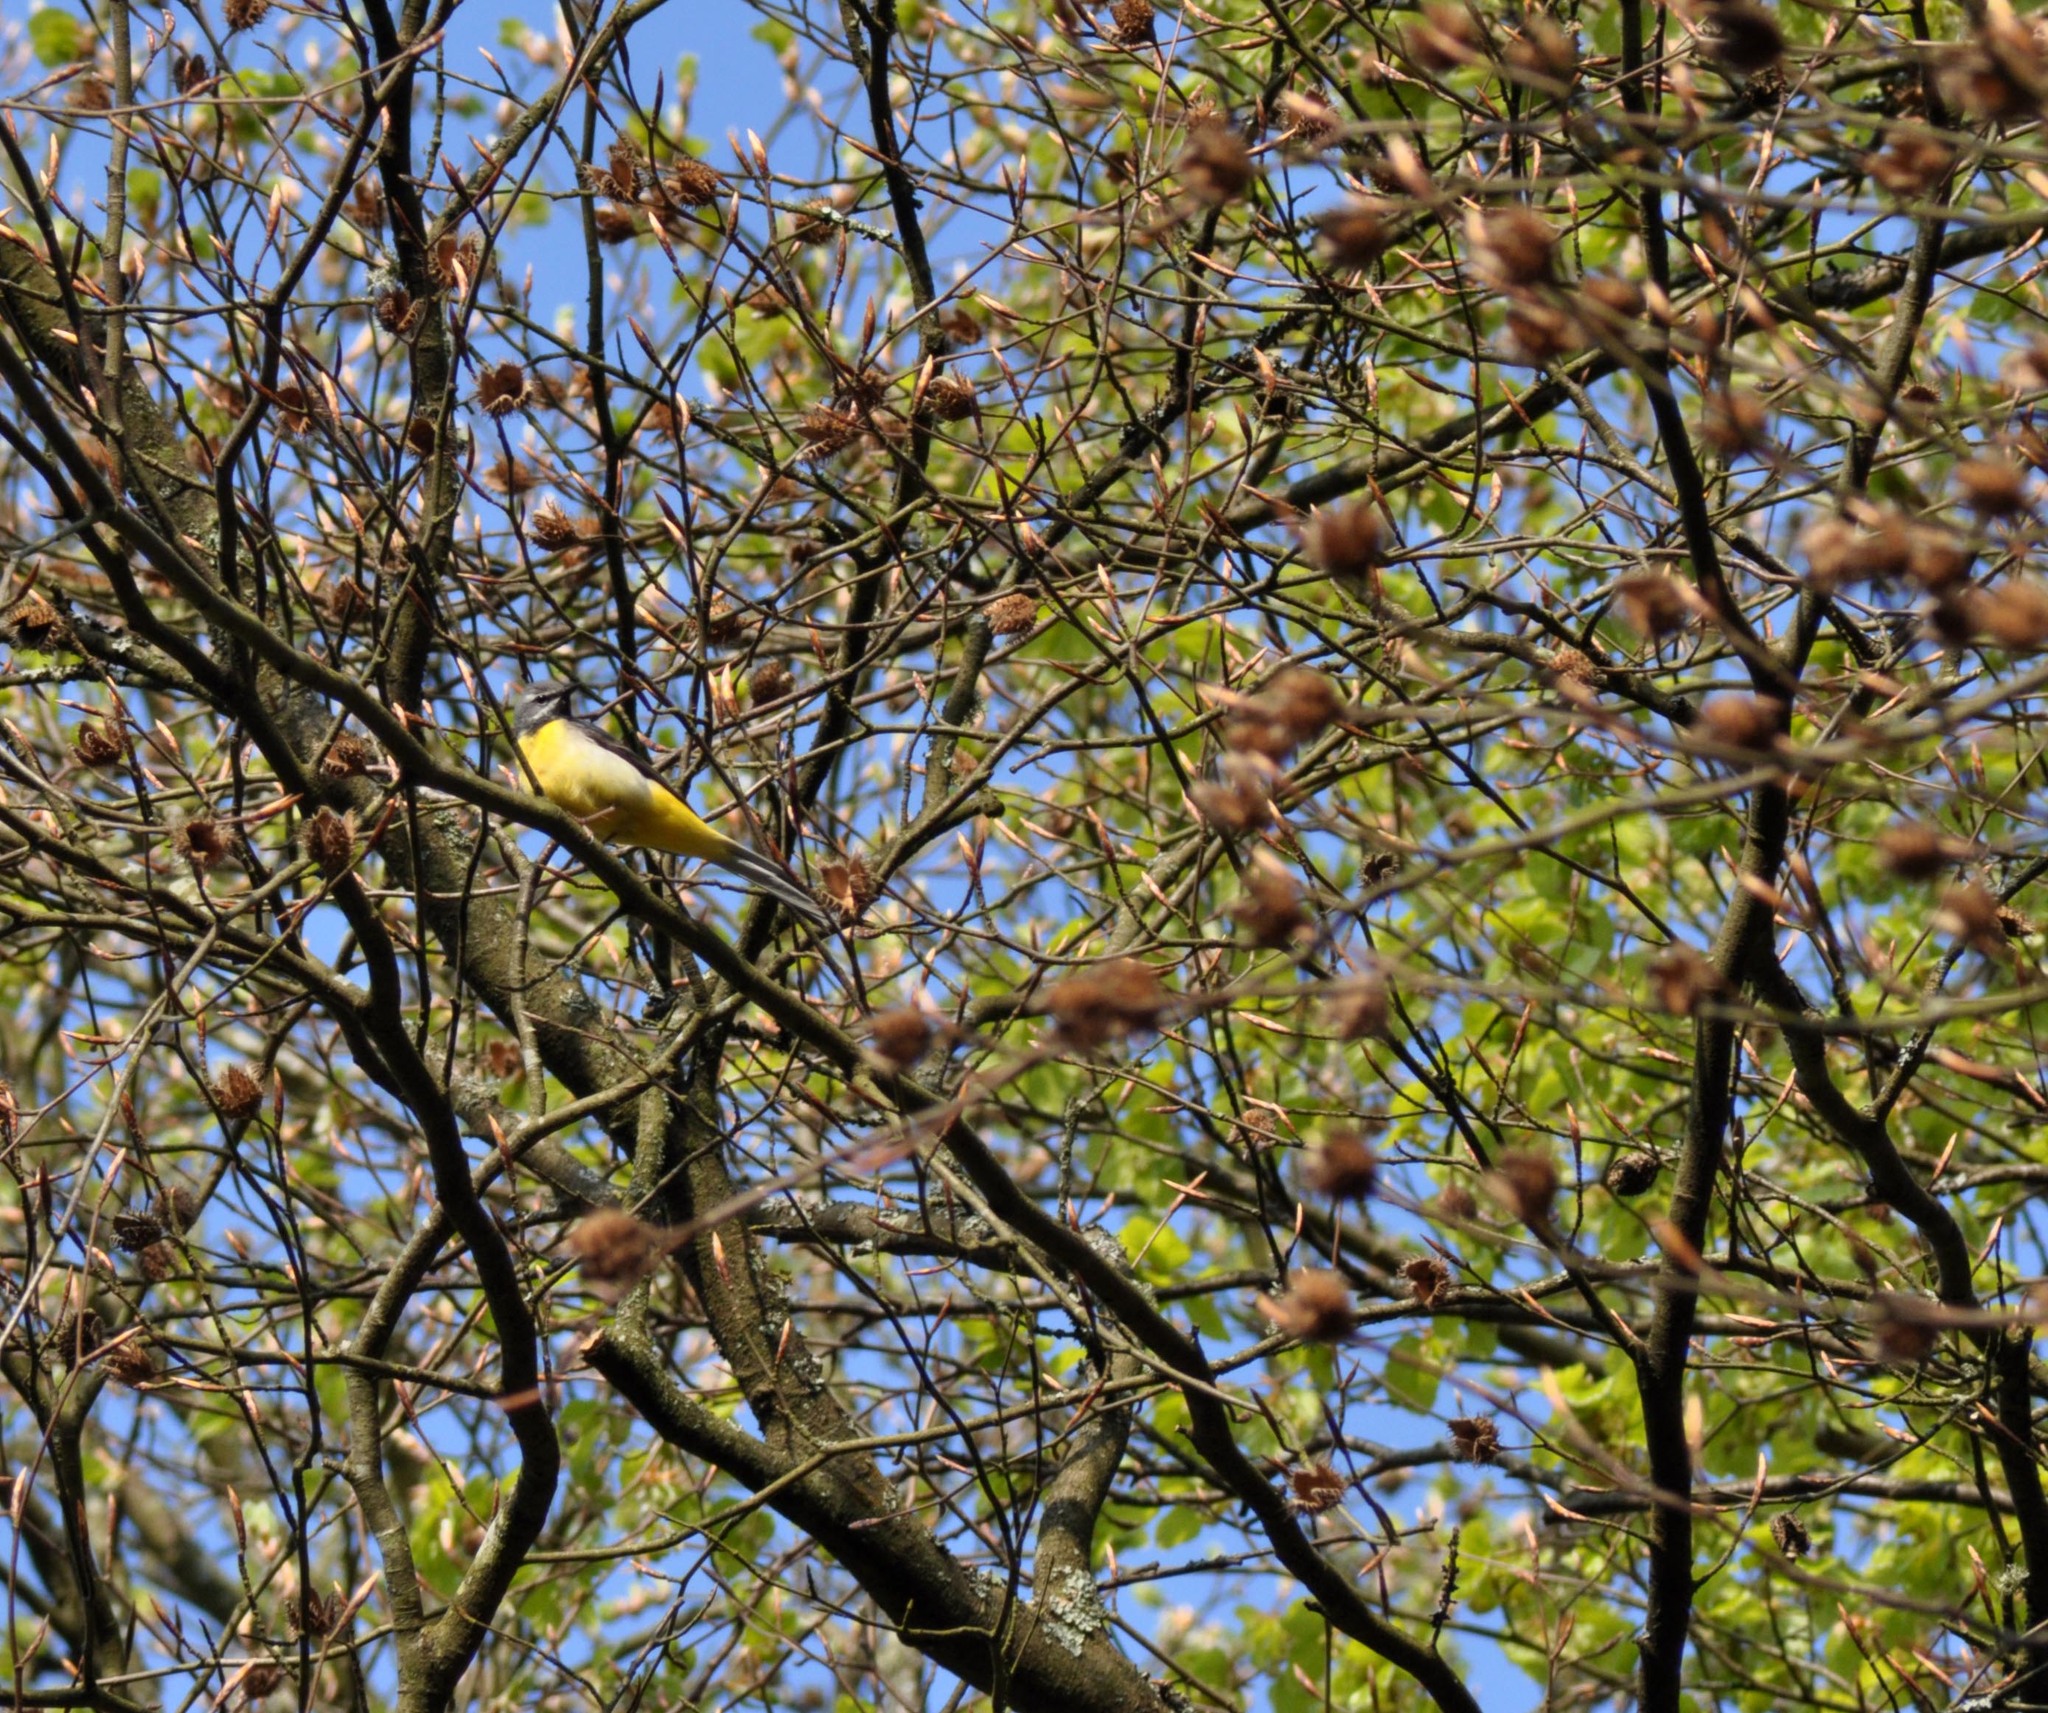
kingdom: Animalia
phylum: Chordata
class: Aves
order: Passeriformes
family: Motacillidae
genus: Motacilla
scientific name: Motacilla cinerea
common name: Grey wagtail
